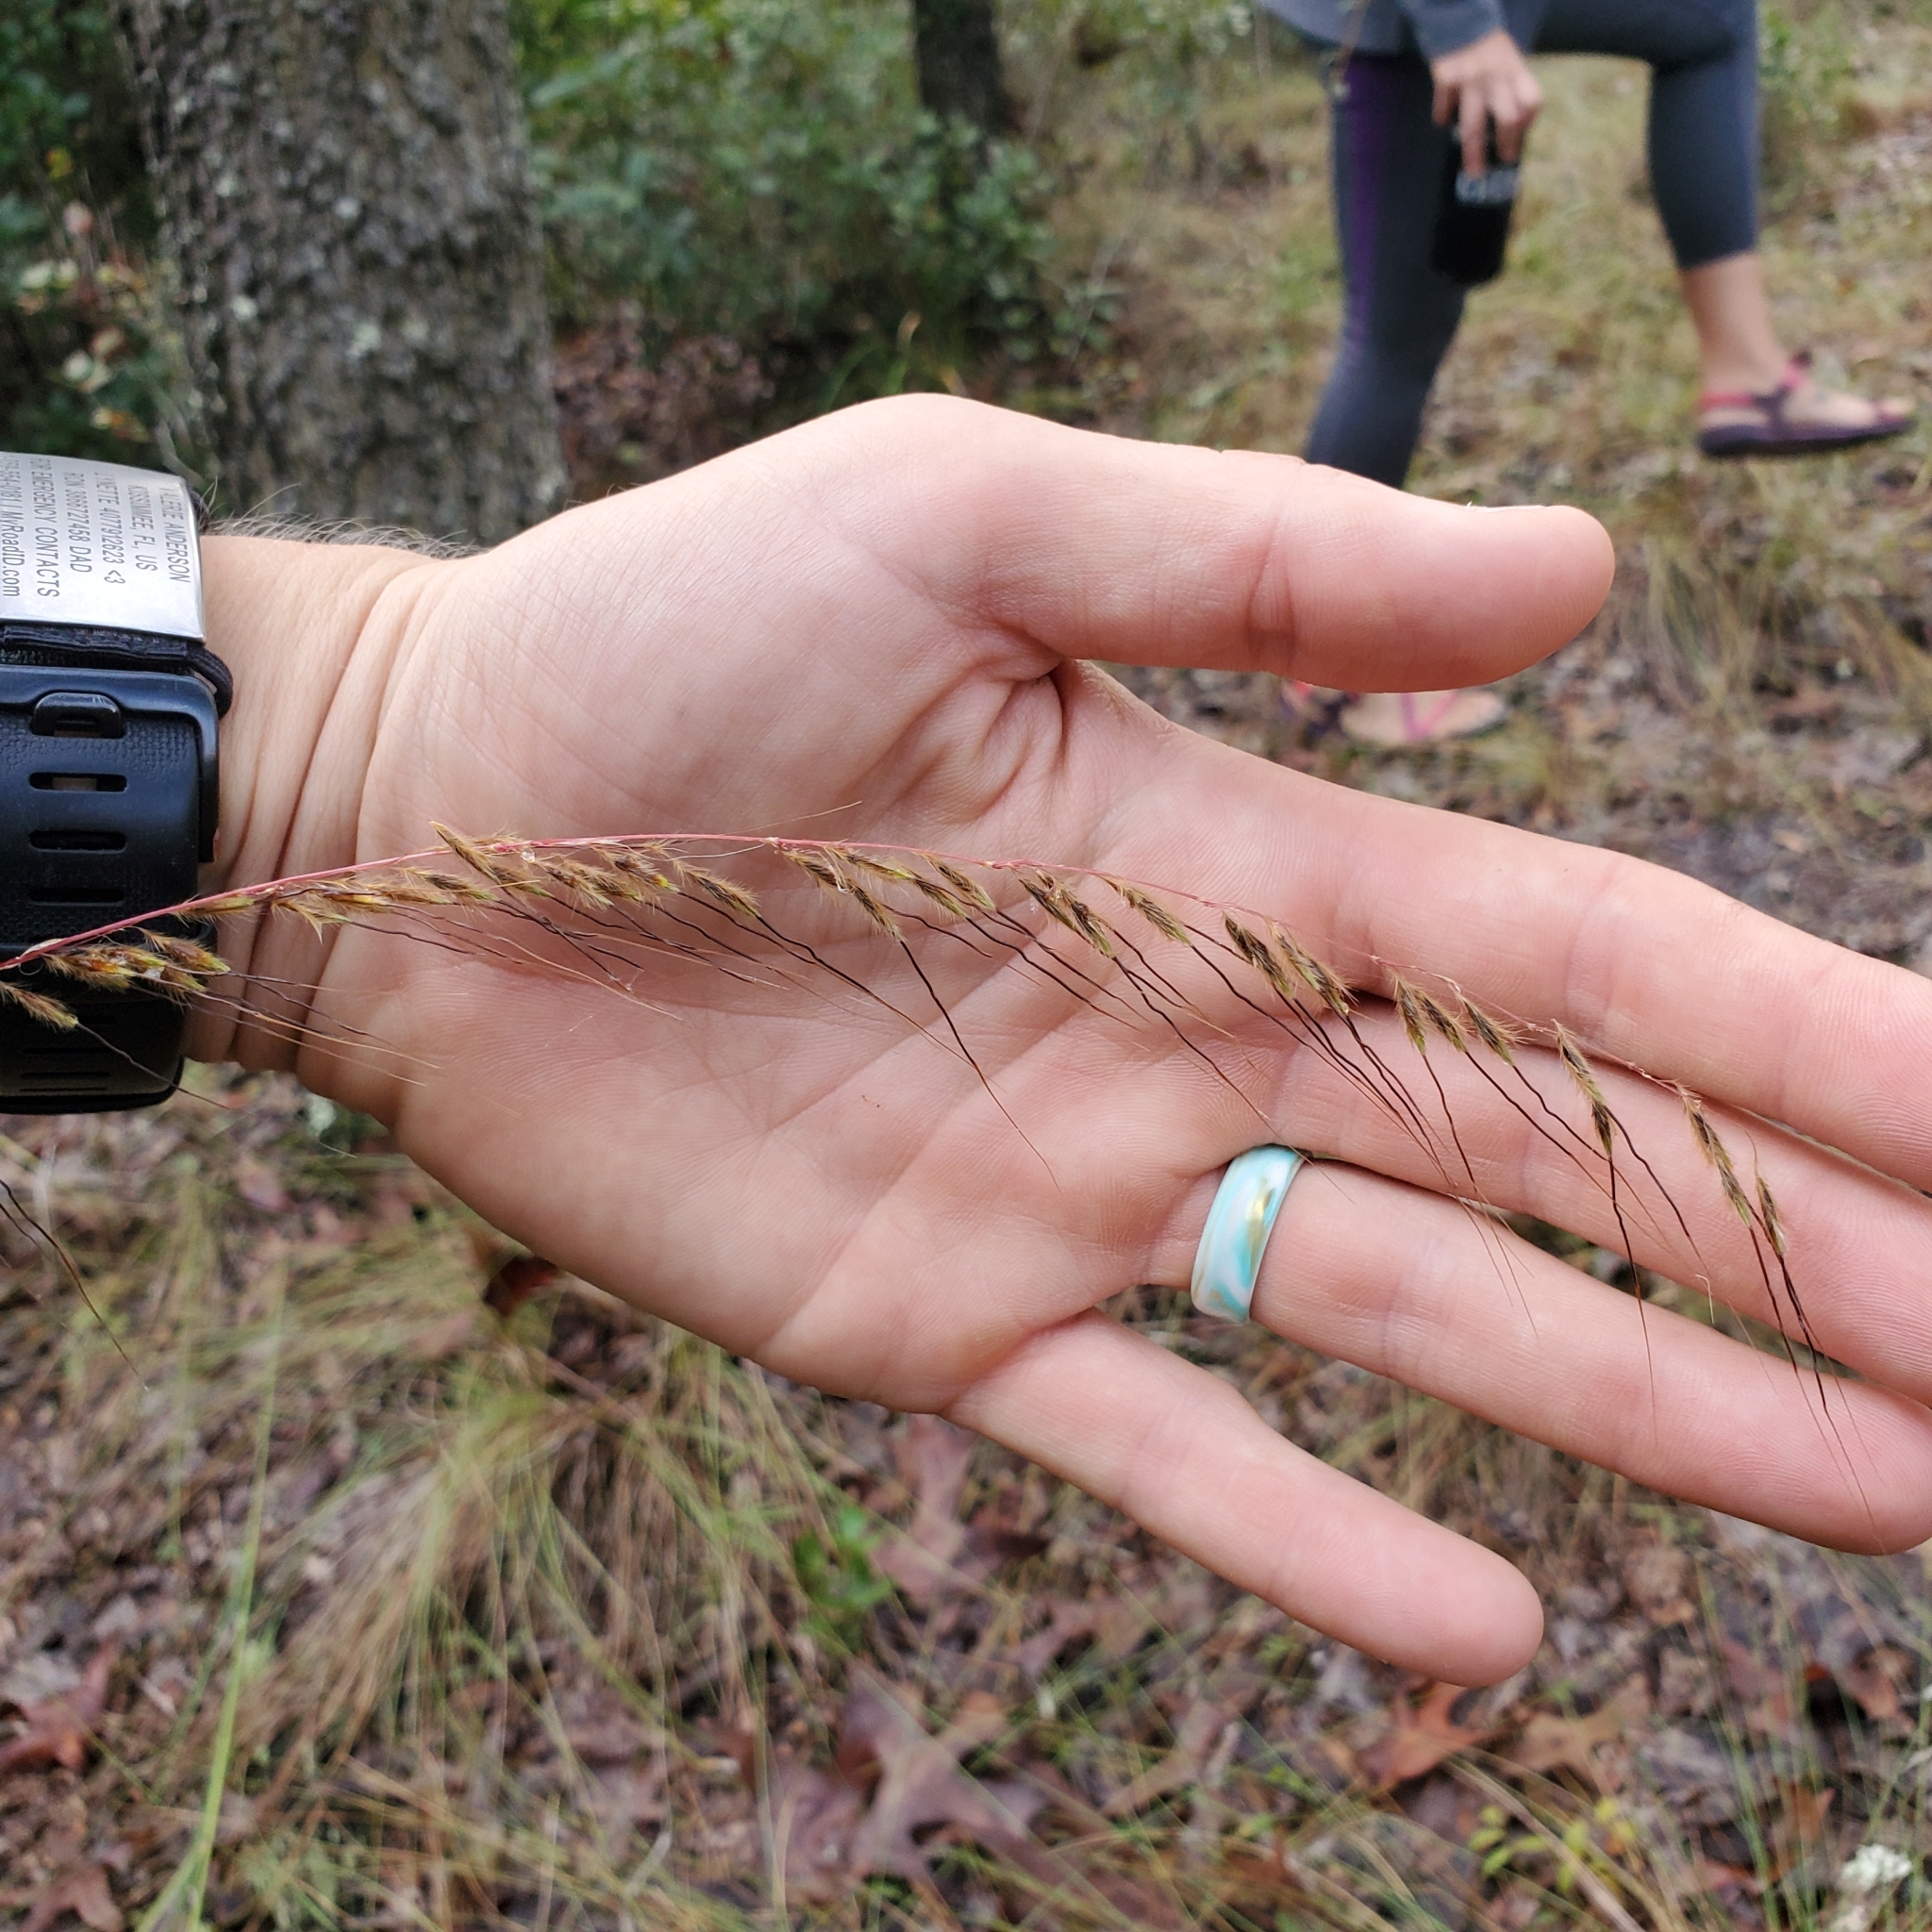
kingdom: Plantae
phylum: Tracheophyta
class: Liliopsida
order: Poales
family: Poaceae
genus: Sorghastrum
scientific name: Sorghastrum secundum
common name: Lopsided indian grass
